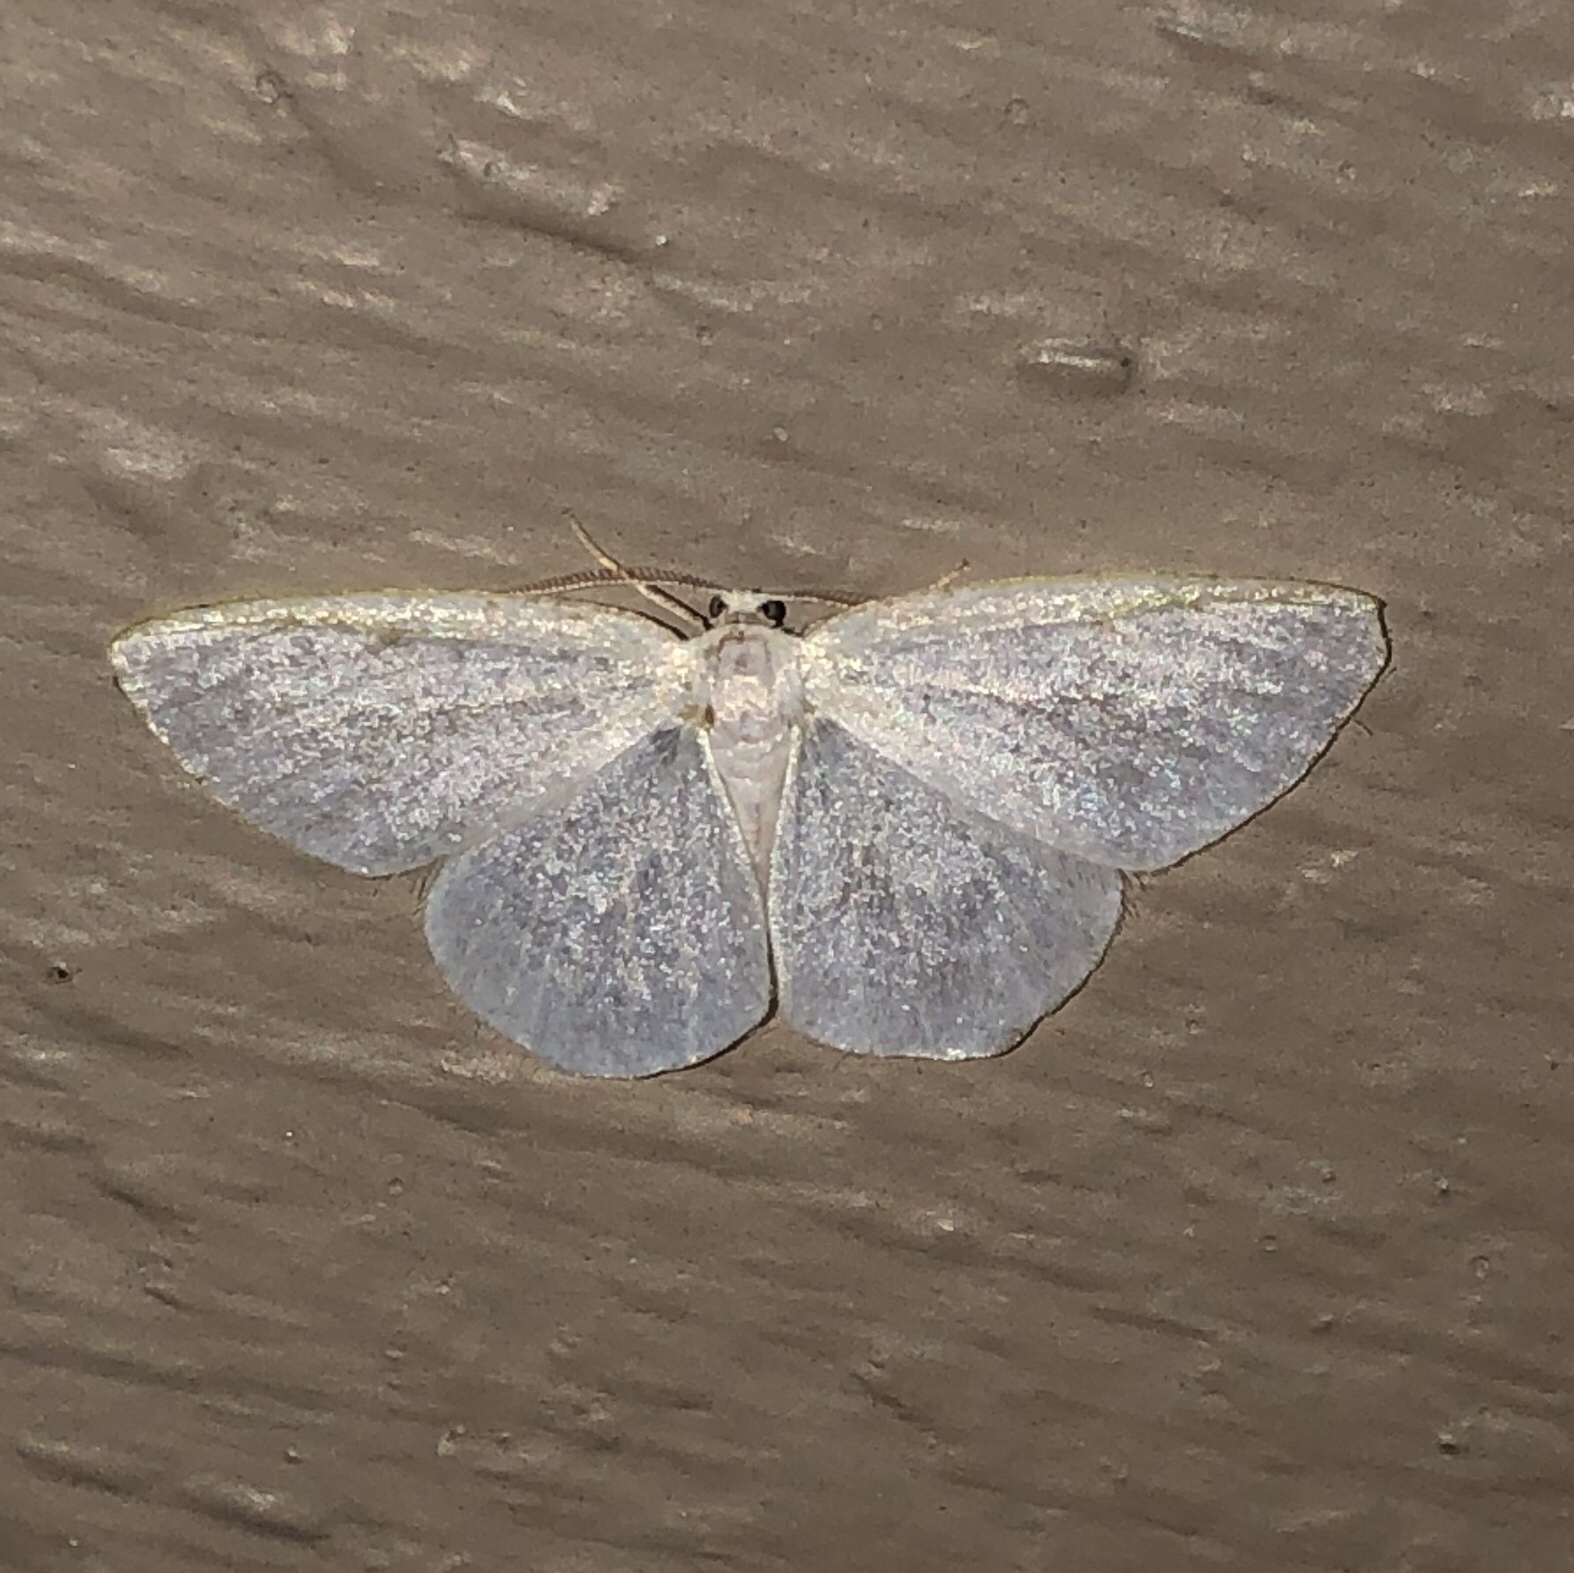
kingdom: Animalia
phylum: Arthropoda
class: Insecta
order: Lepidoptera
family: Geometridae
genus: Protitame
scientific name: Protitame virginalis
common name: Virgin moth
